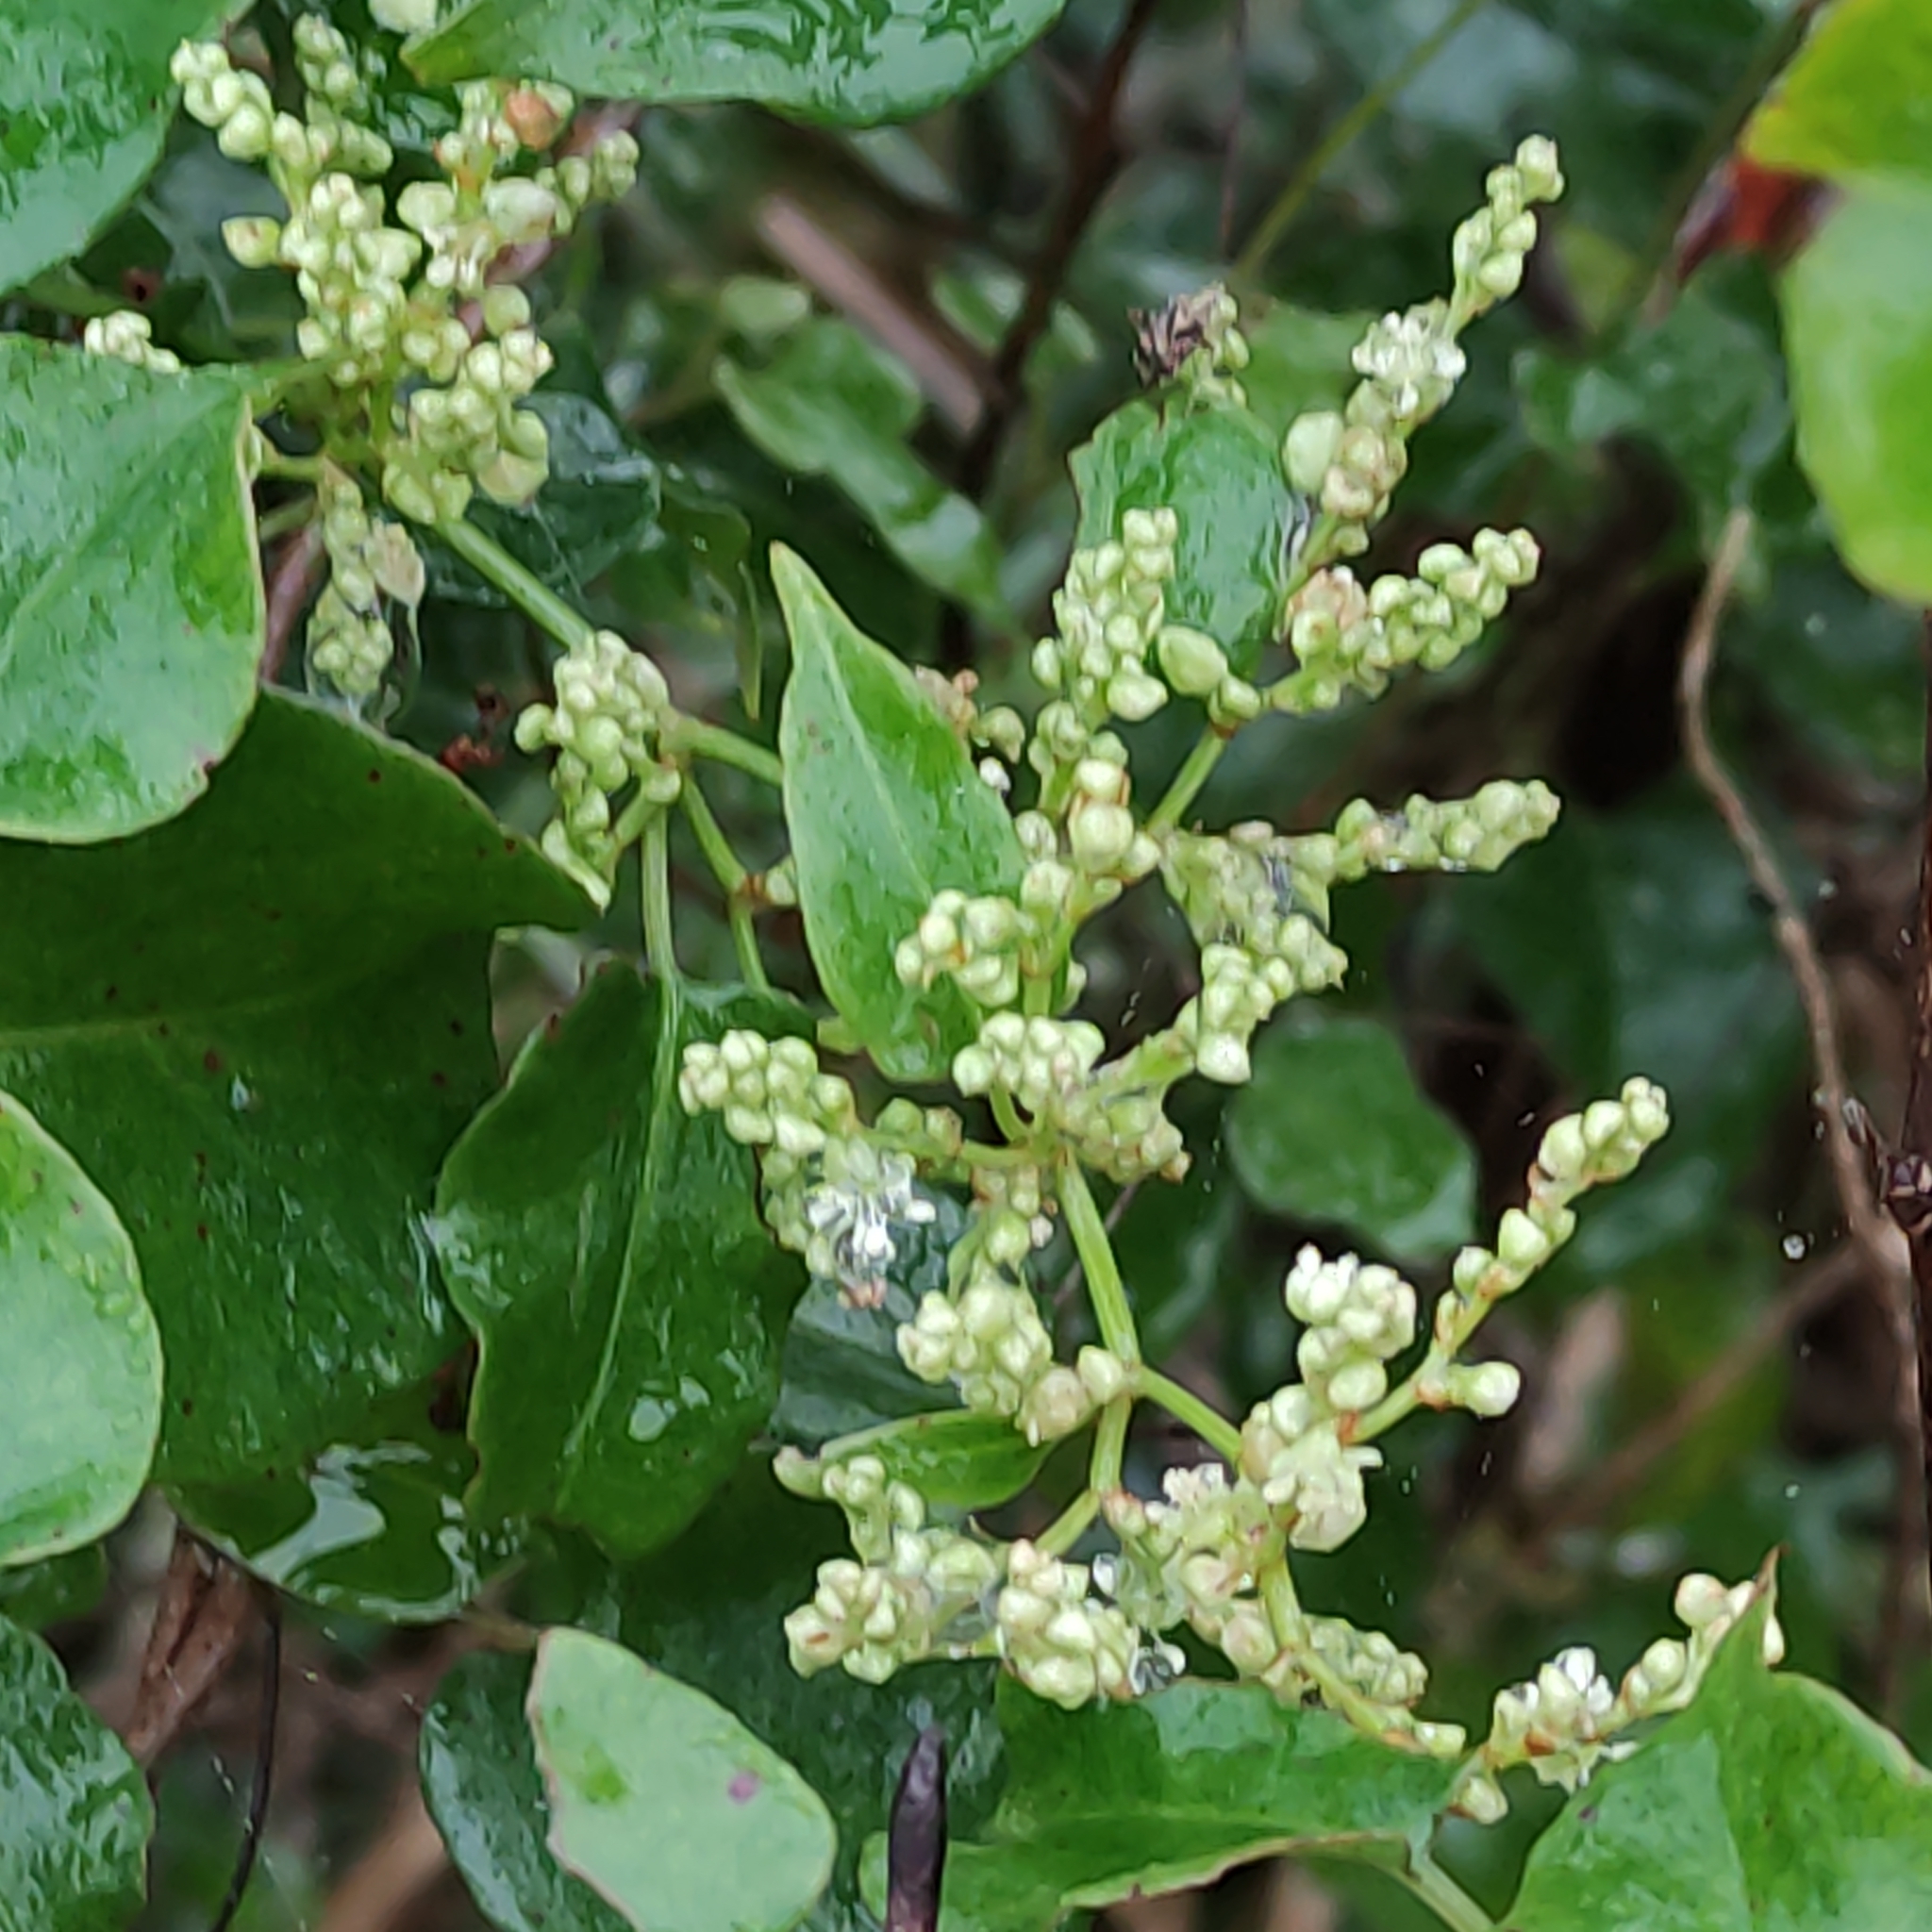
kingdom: Plantae
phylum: Tracheophyta
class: Magnoliopsida
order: Caryophyllales
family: Polygonaceae
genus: Muehlenbeckia
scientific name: Muehlenbeckia australis
